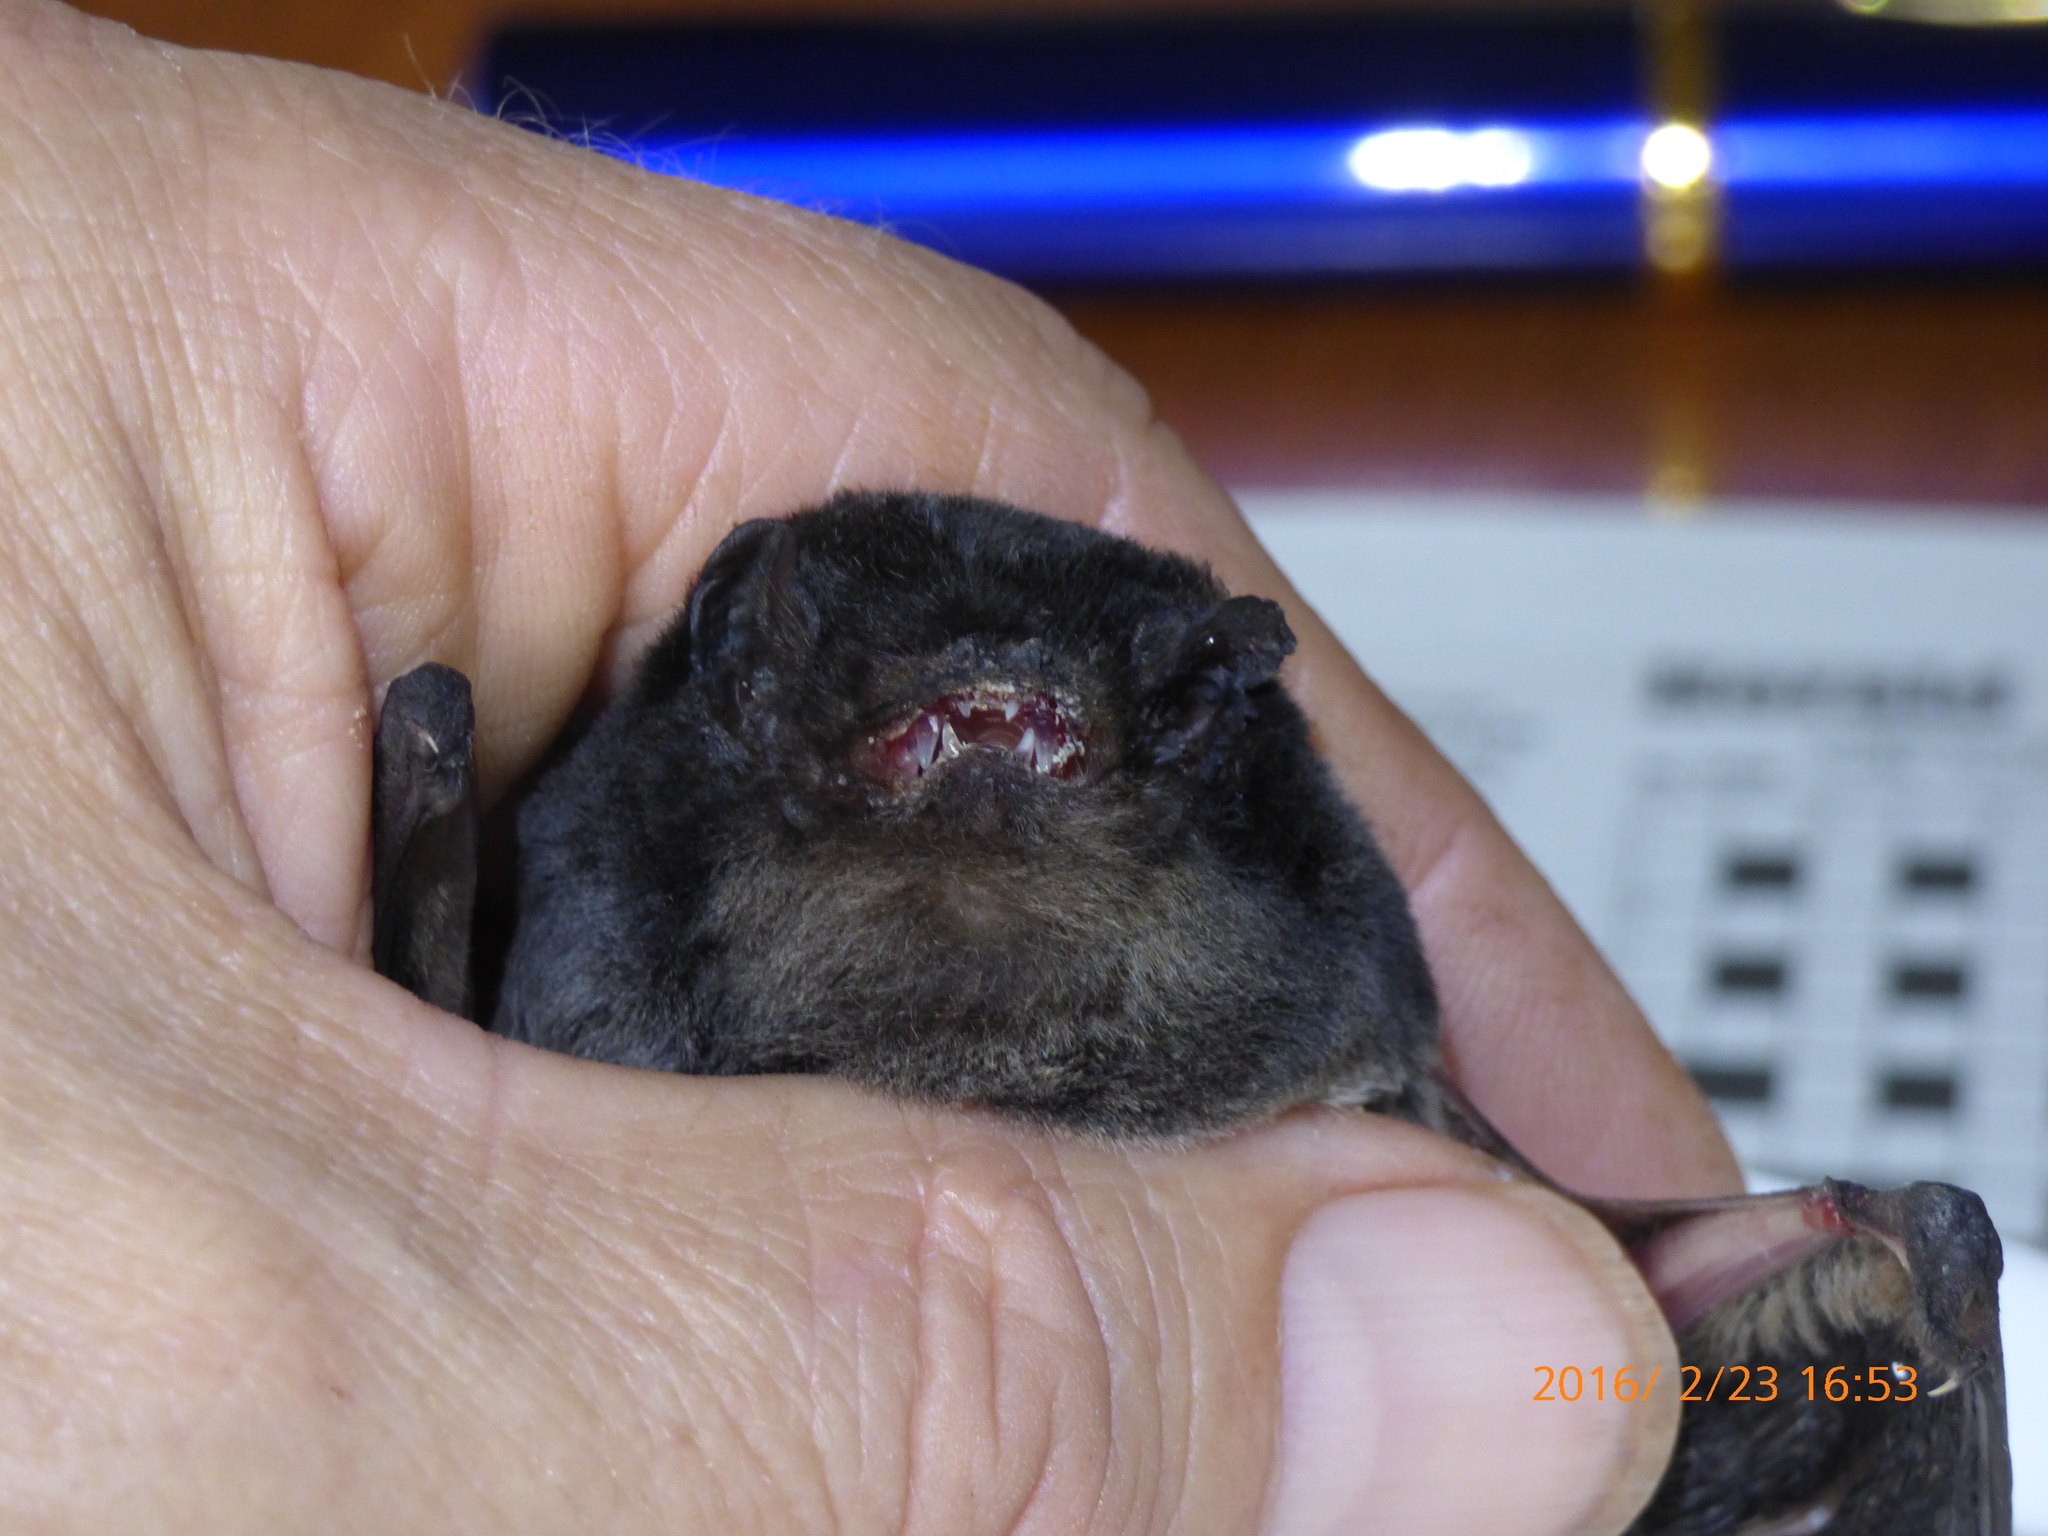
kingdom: Animalia
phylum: Chordata
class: Mammalia
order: Chiroptera
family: Vespertilionidae
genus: Chalinolobus
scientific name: Chalinolobus gouldii
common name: Gould's wattled bat
